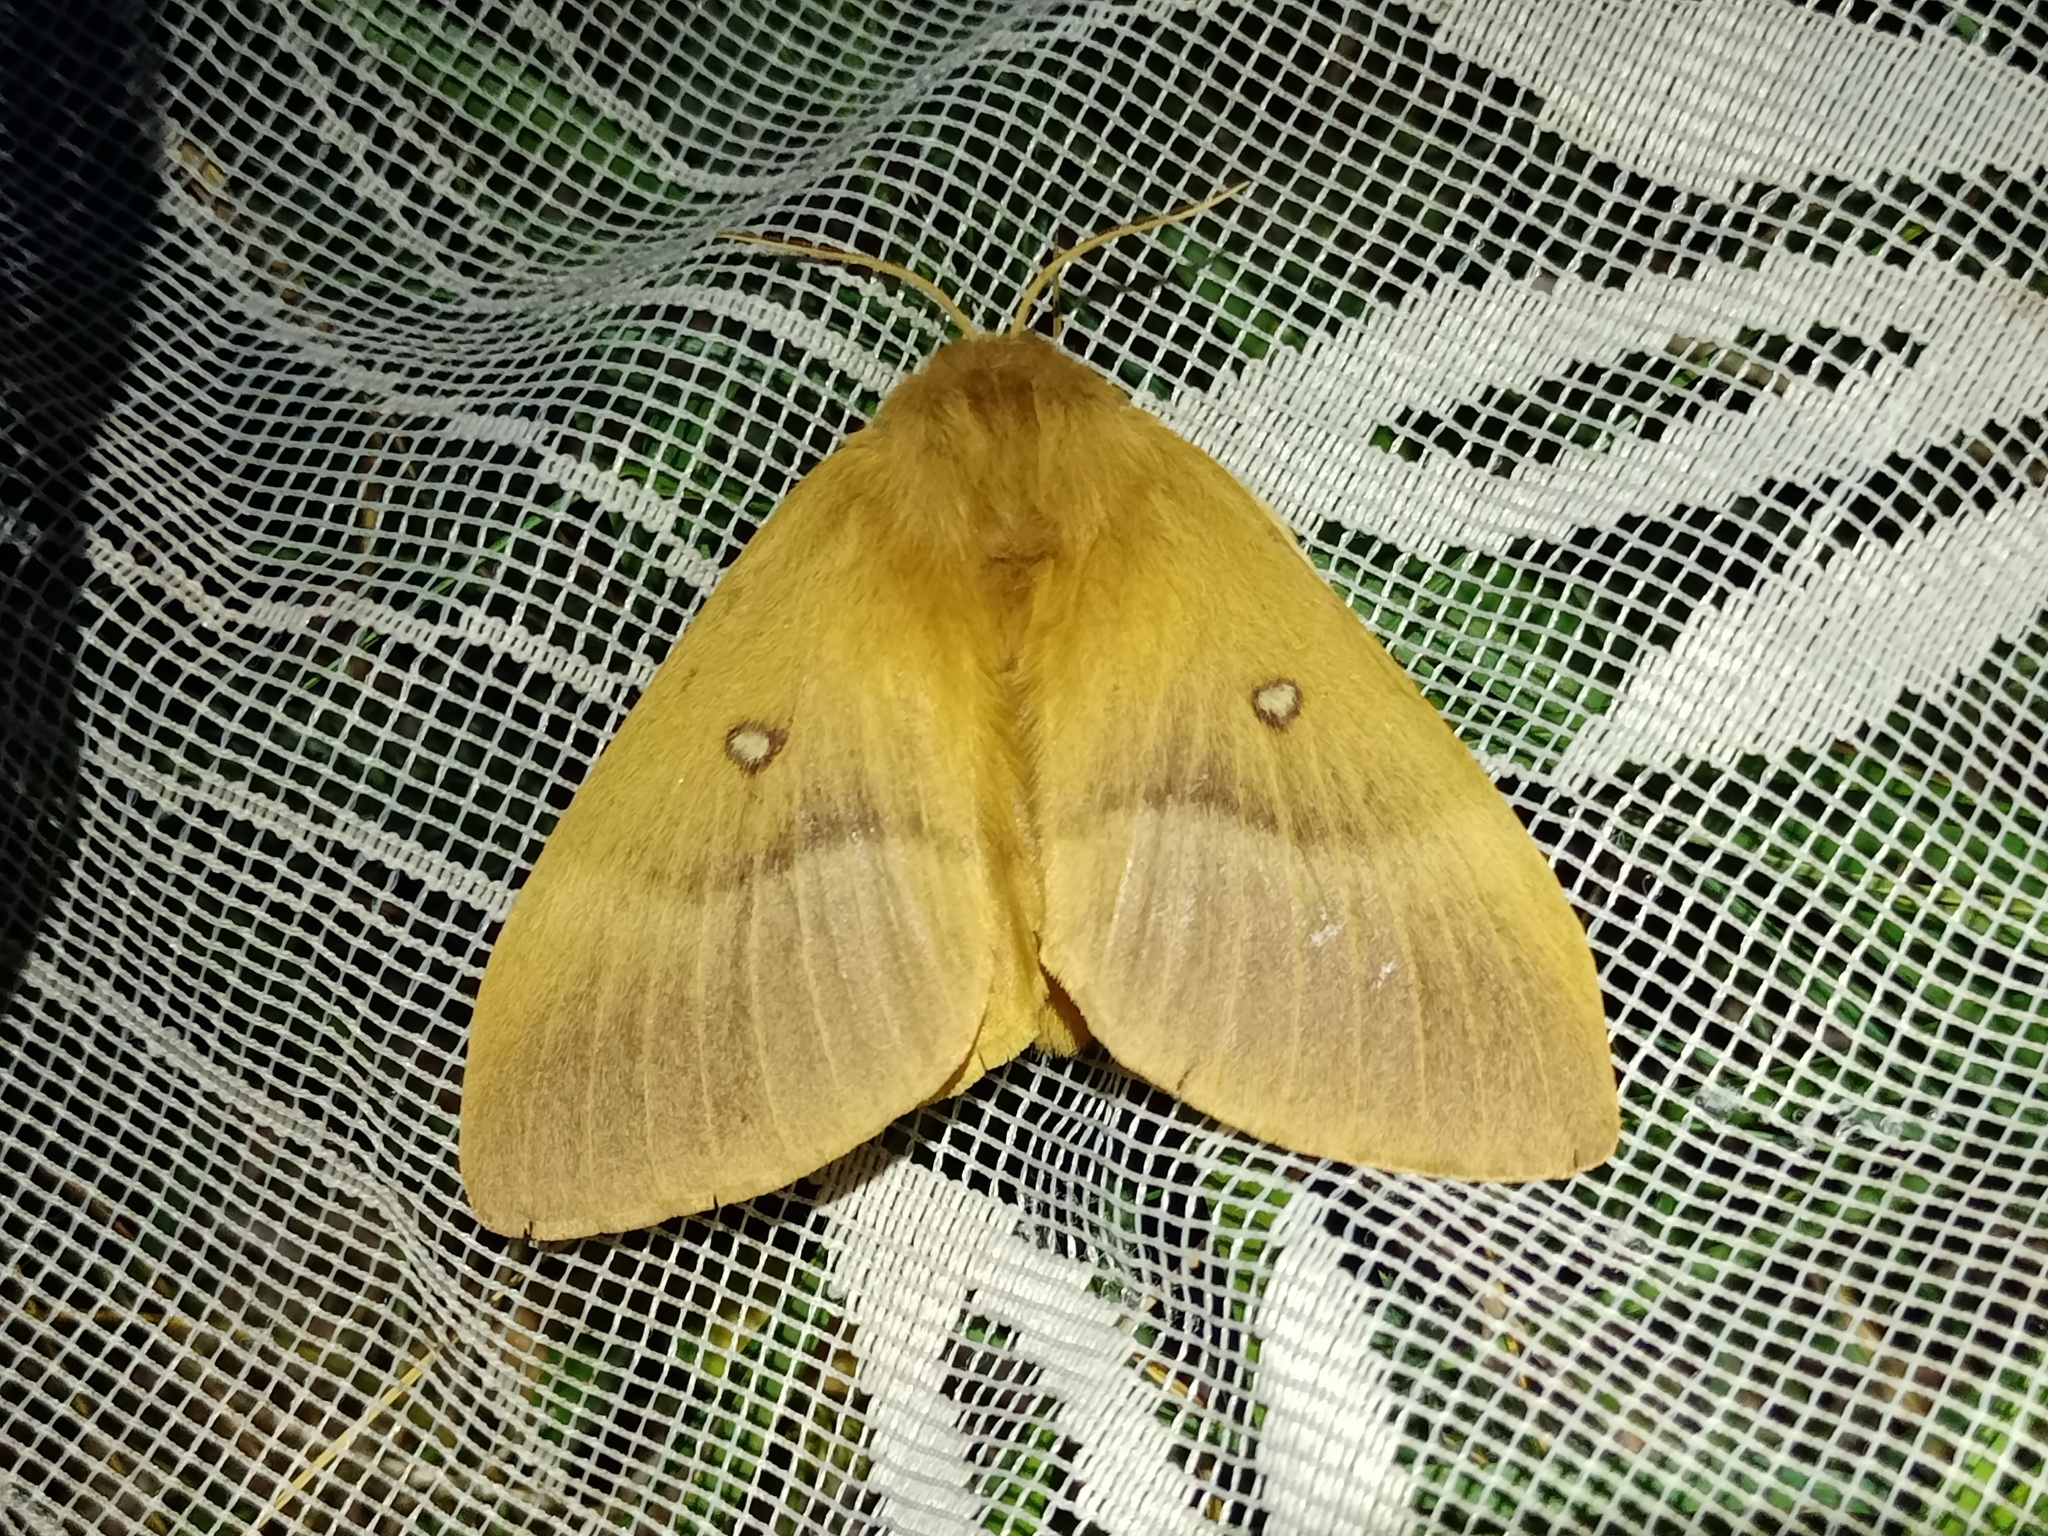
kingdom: Animalia
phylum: Arthropoda
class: Insecta
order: Lepidoptera
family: Lasiocampidae
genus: Lasiocampa
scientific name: Lasiocampa quercus
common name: Oak eggar
